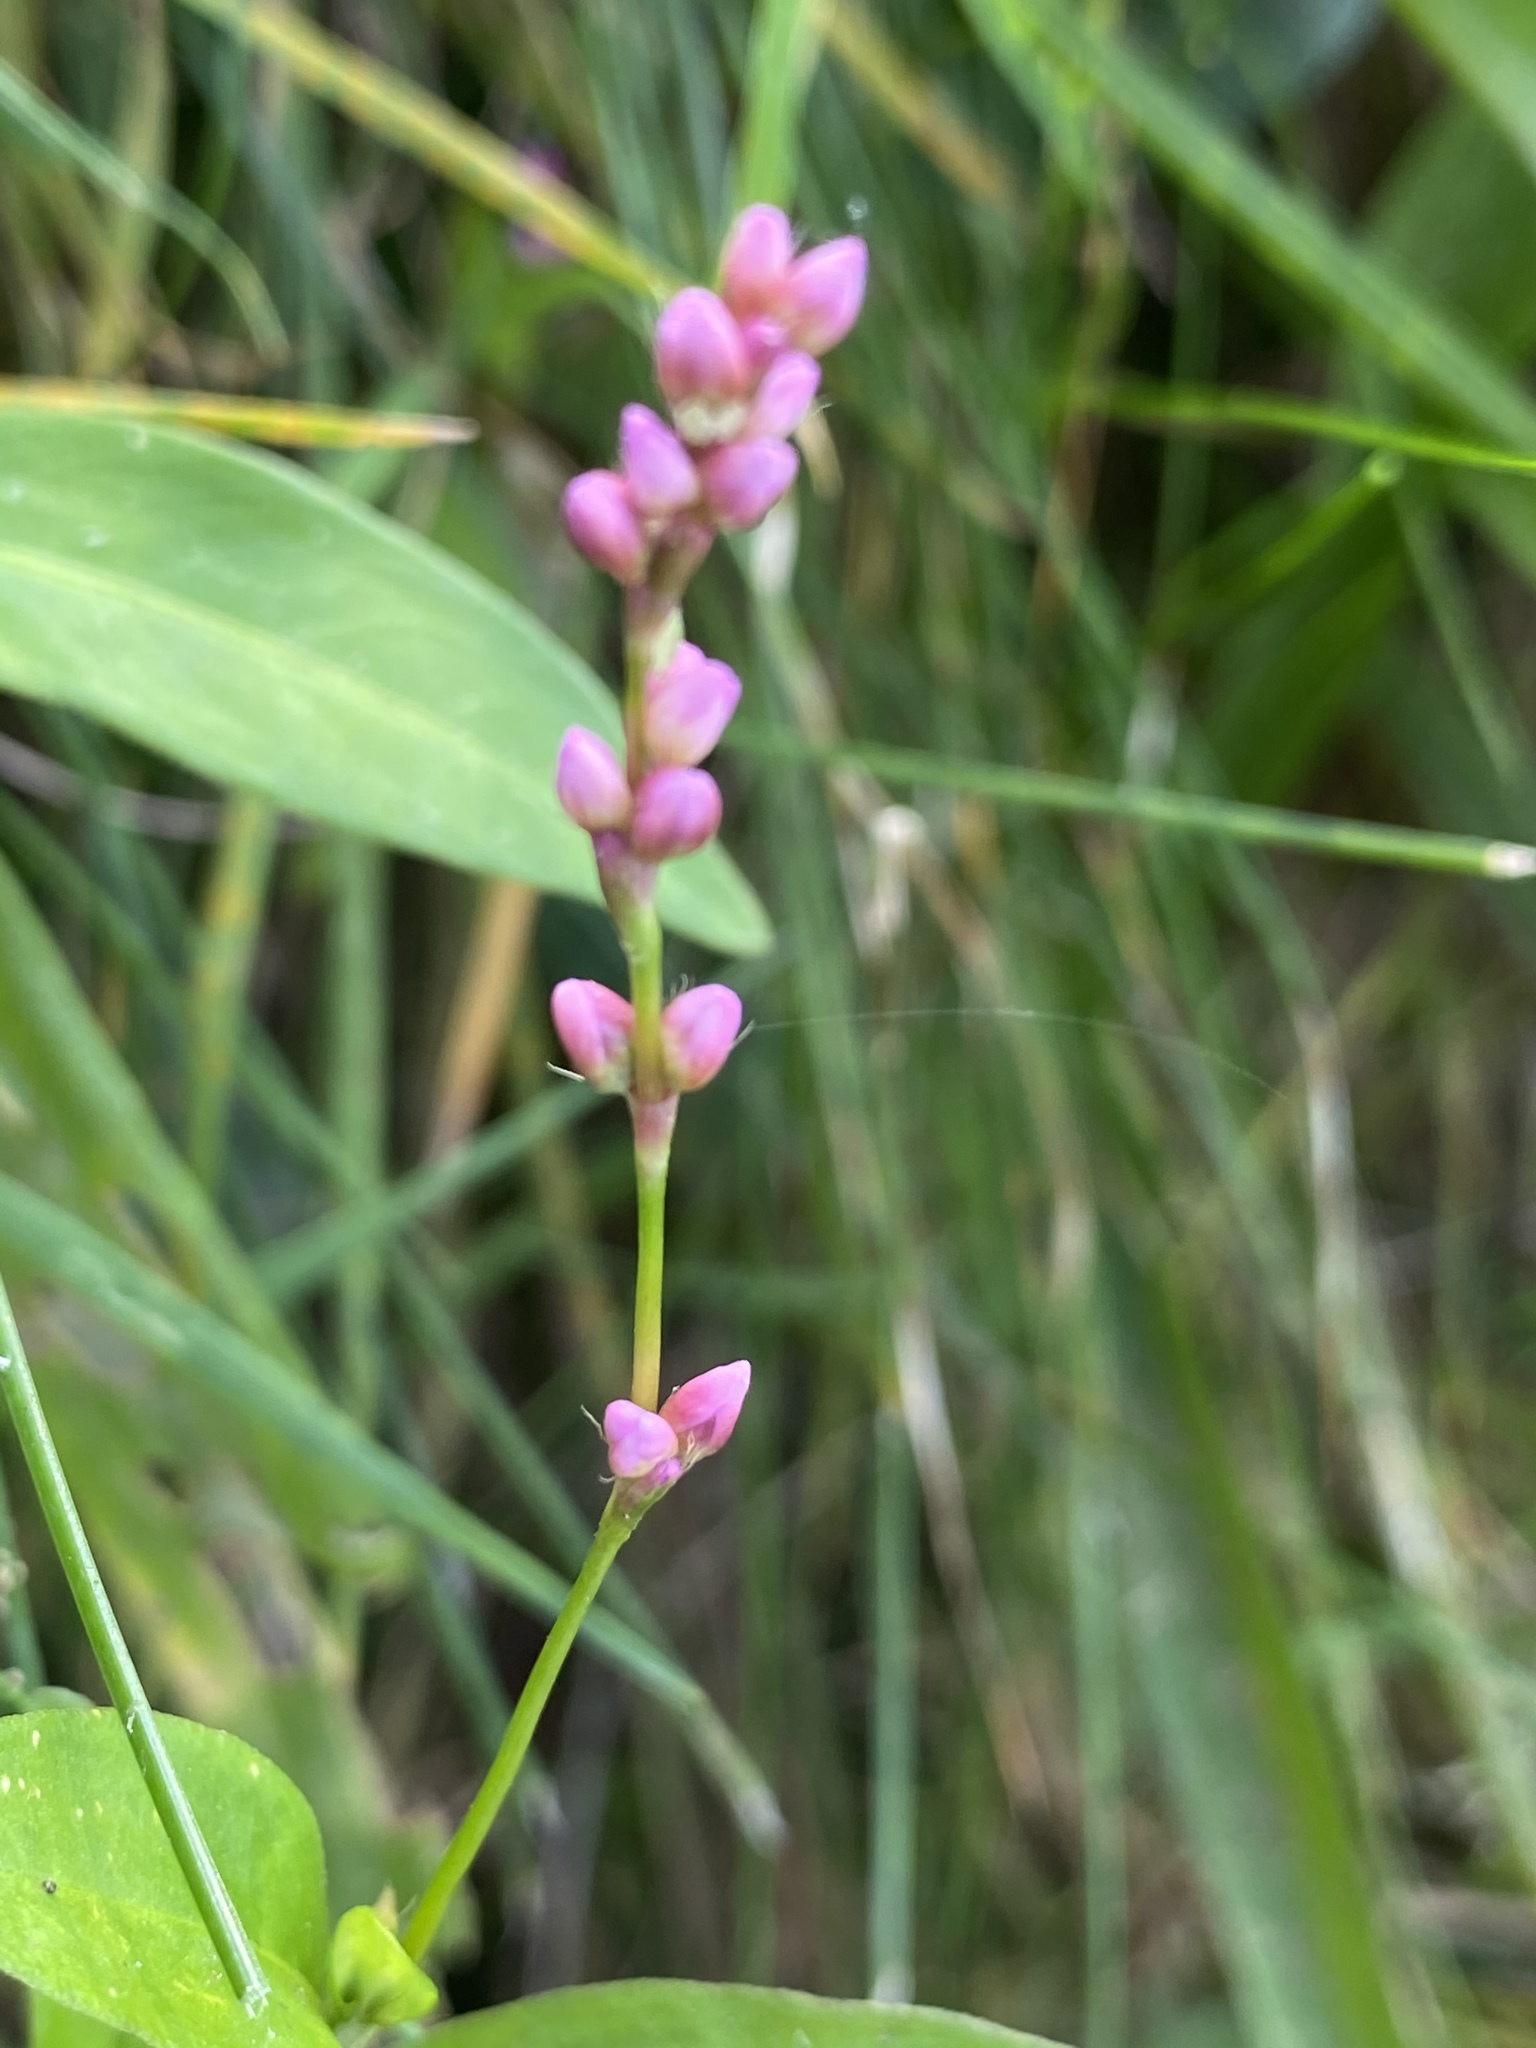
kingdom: Plantae
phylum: Tracheophyta
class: Magnoliopsida
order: Caryophyllales
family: Polygonaceae
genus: Persicaria
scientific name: Persicaria longiseta
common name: Bristly lady's-thumb
